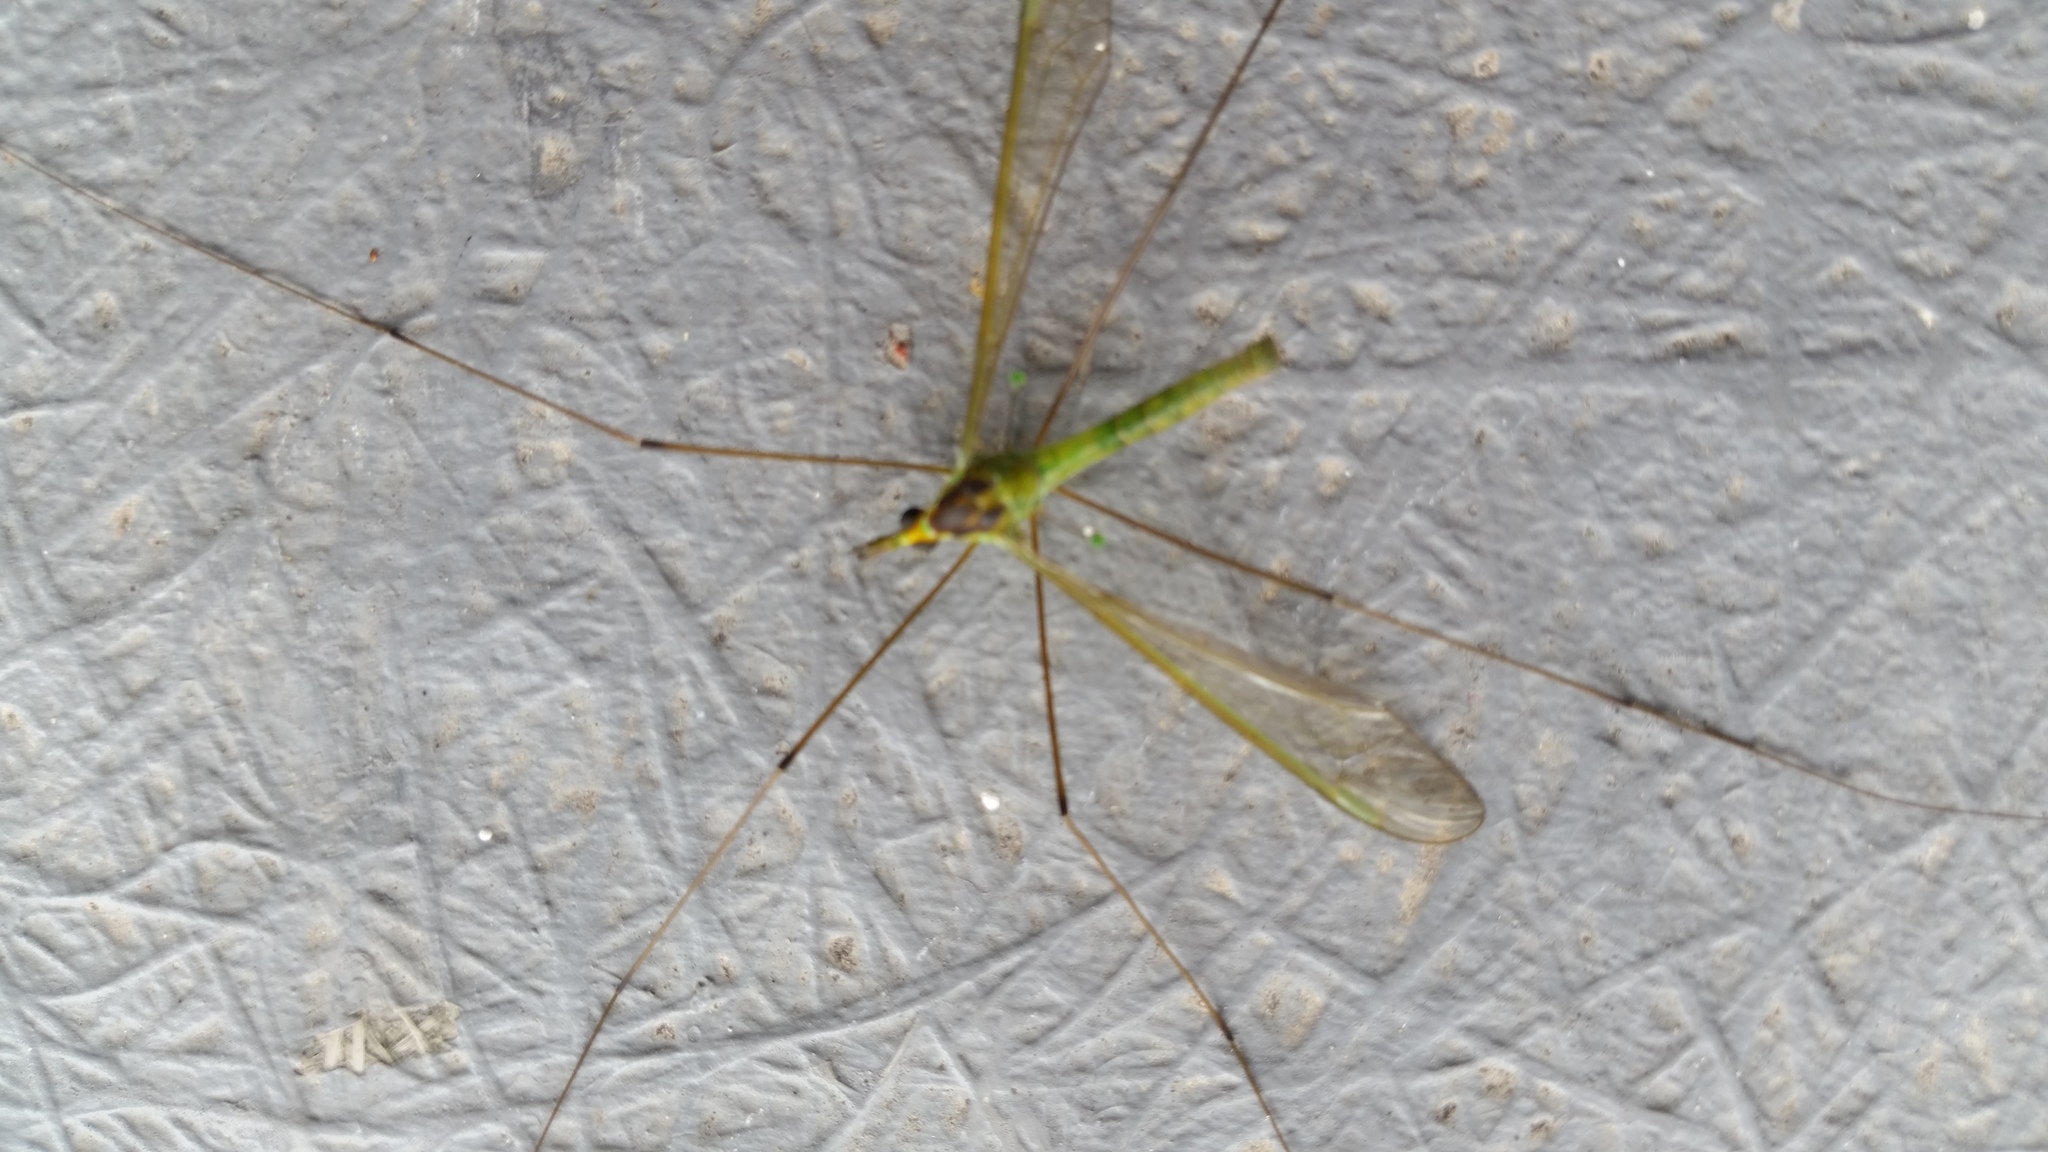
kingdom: Animalia
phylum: Arthropoda
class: Insecta
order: Diptera
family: Tipulidae
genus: Leptotarsus
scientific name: Leptotarsus viridis
